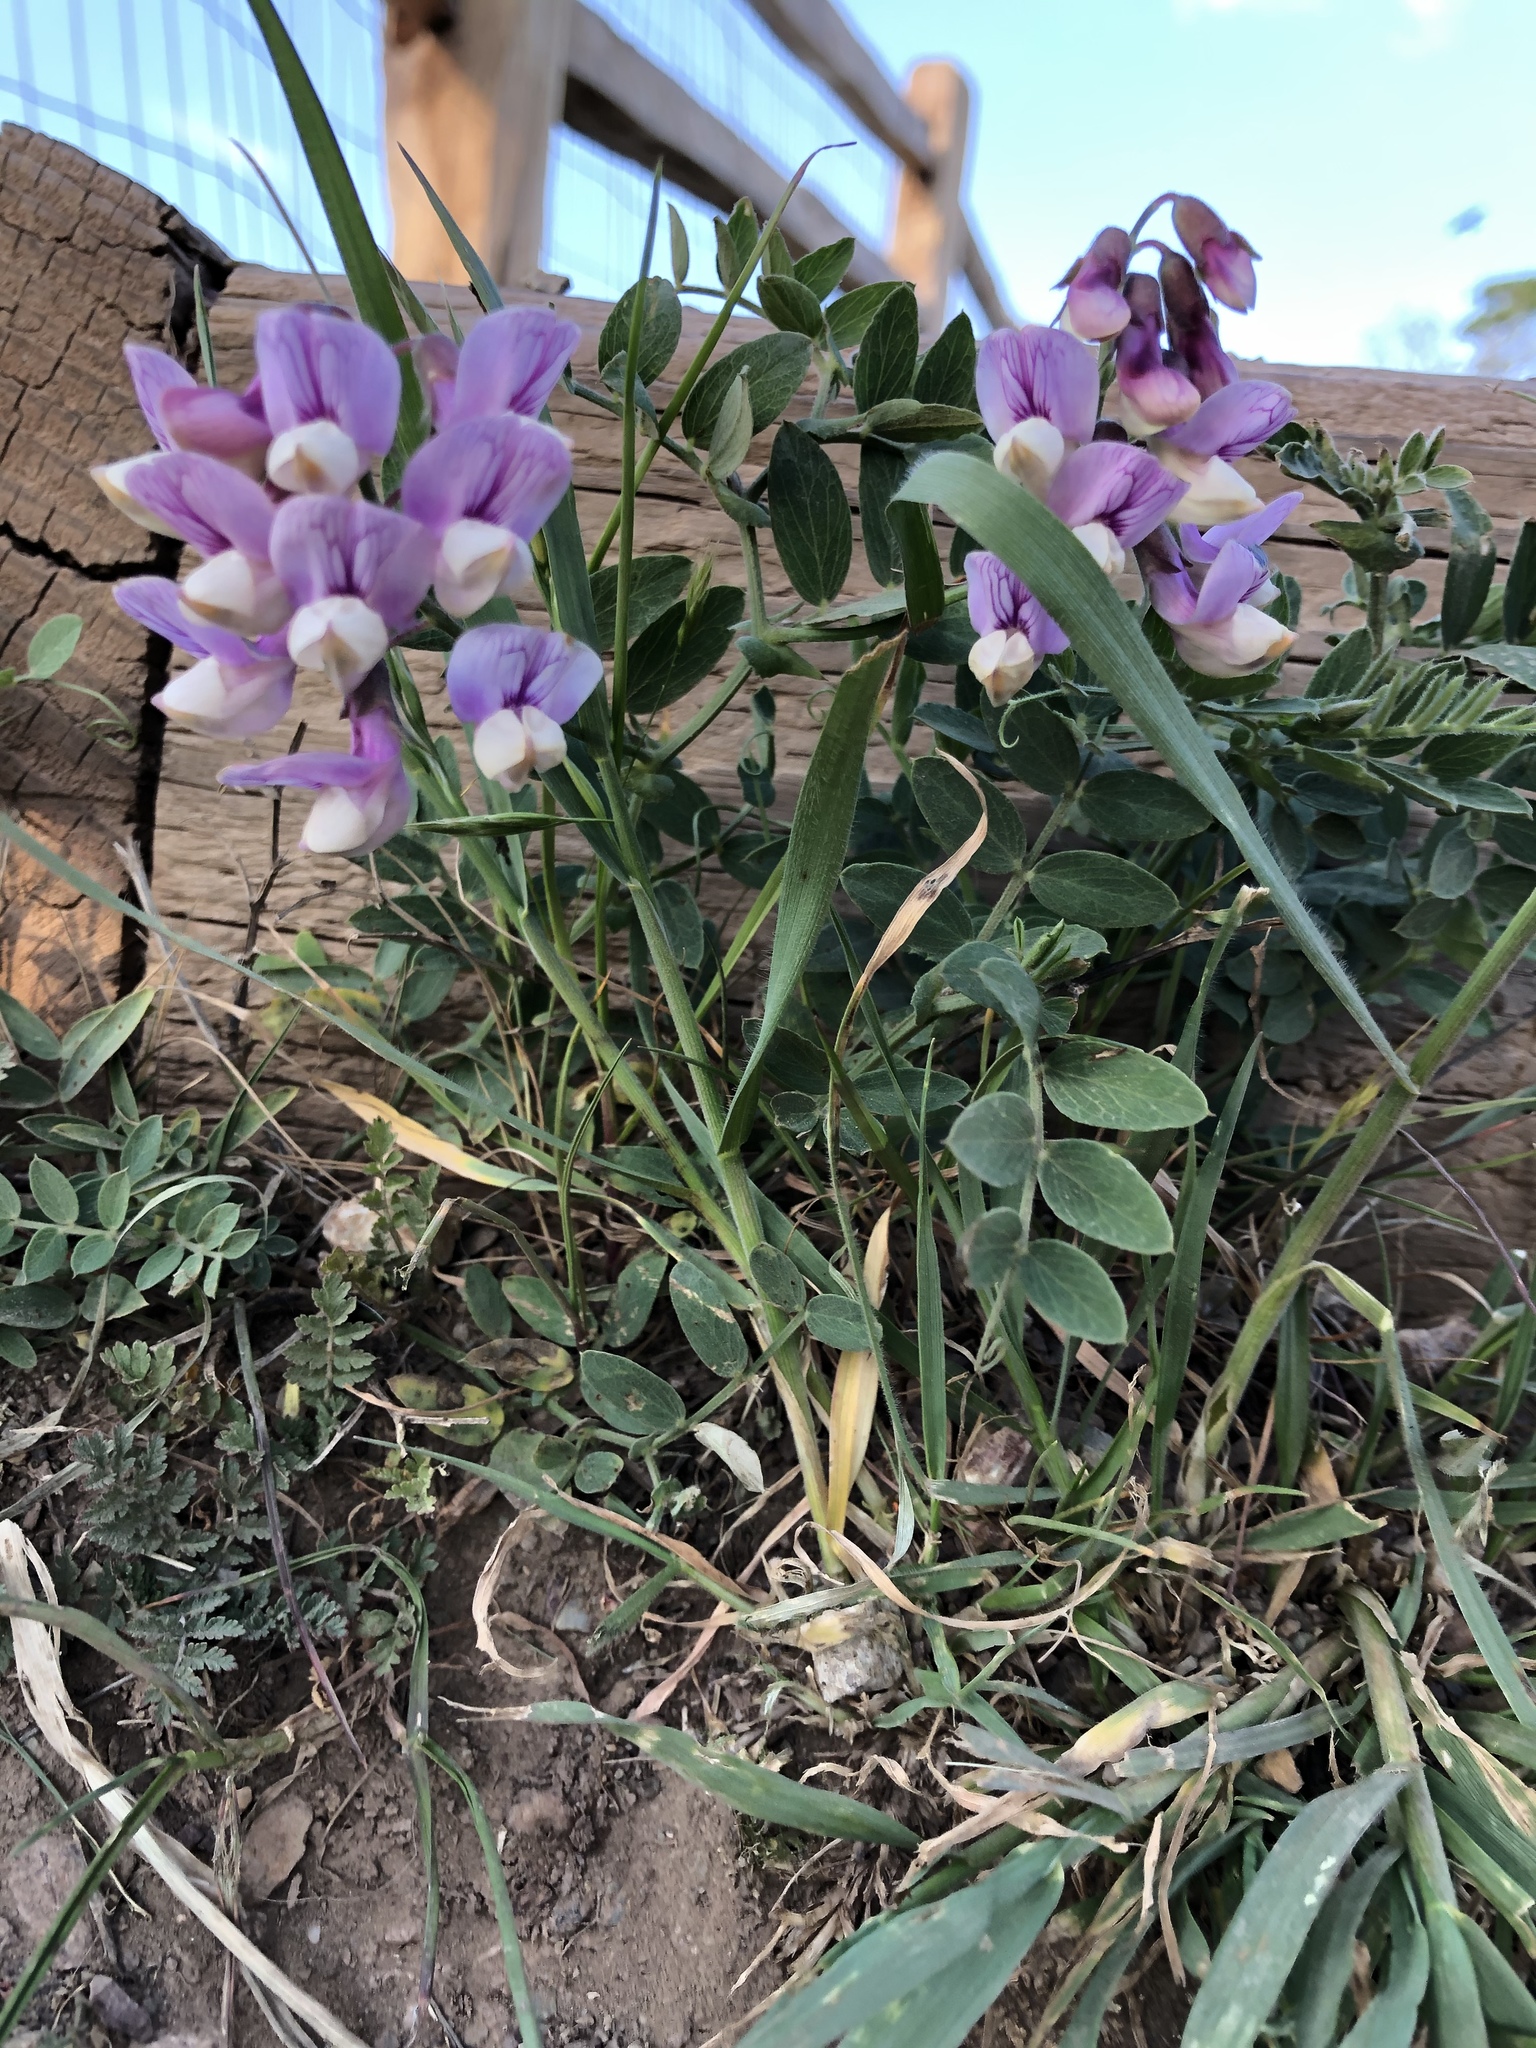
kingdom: Plantae
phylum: Tracheophyta
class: Magnoliopsida
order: Fabales
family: Fabaceae
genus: Lathyrus
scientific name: Lathyrus vestitus
